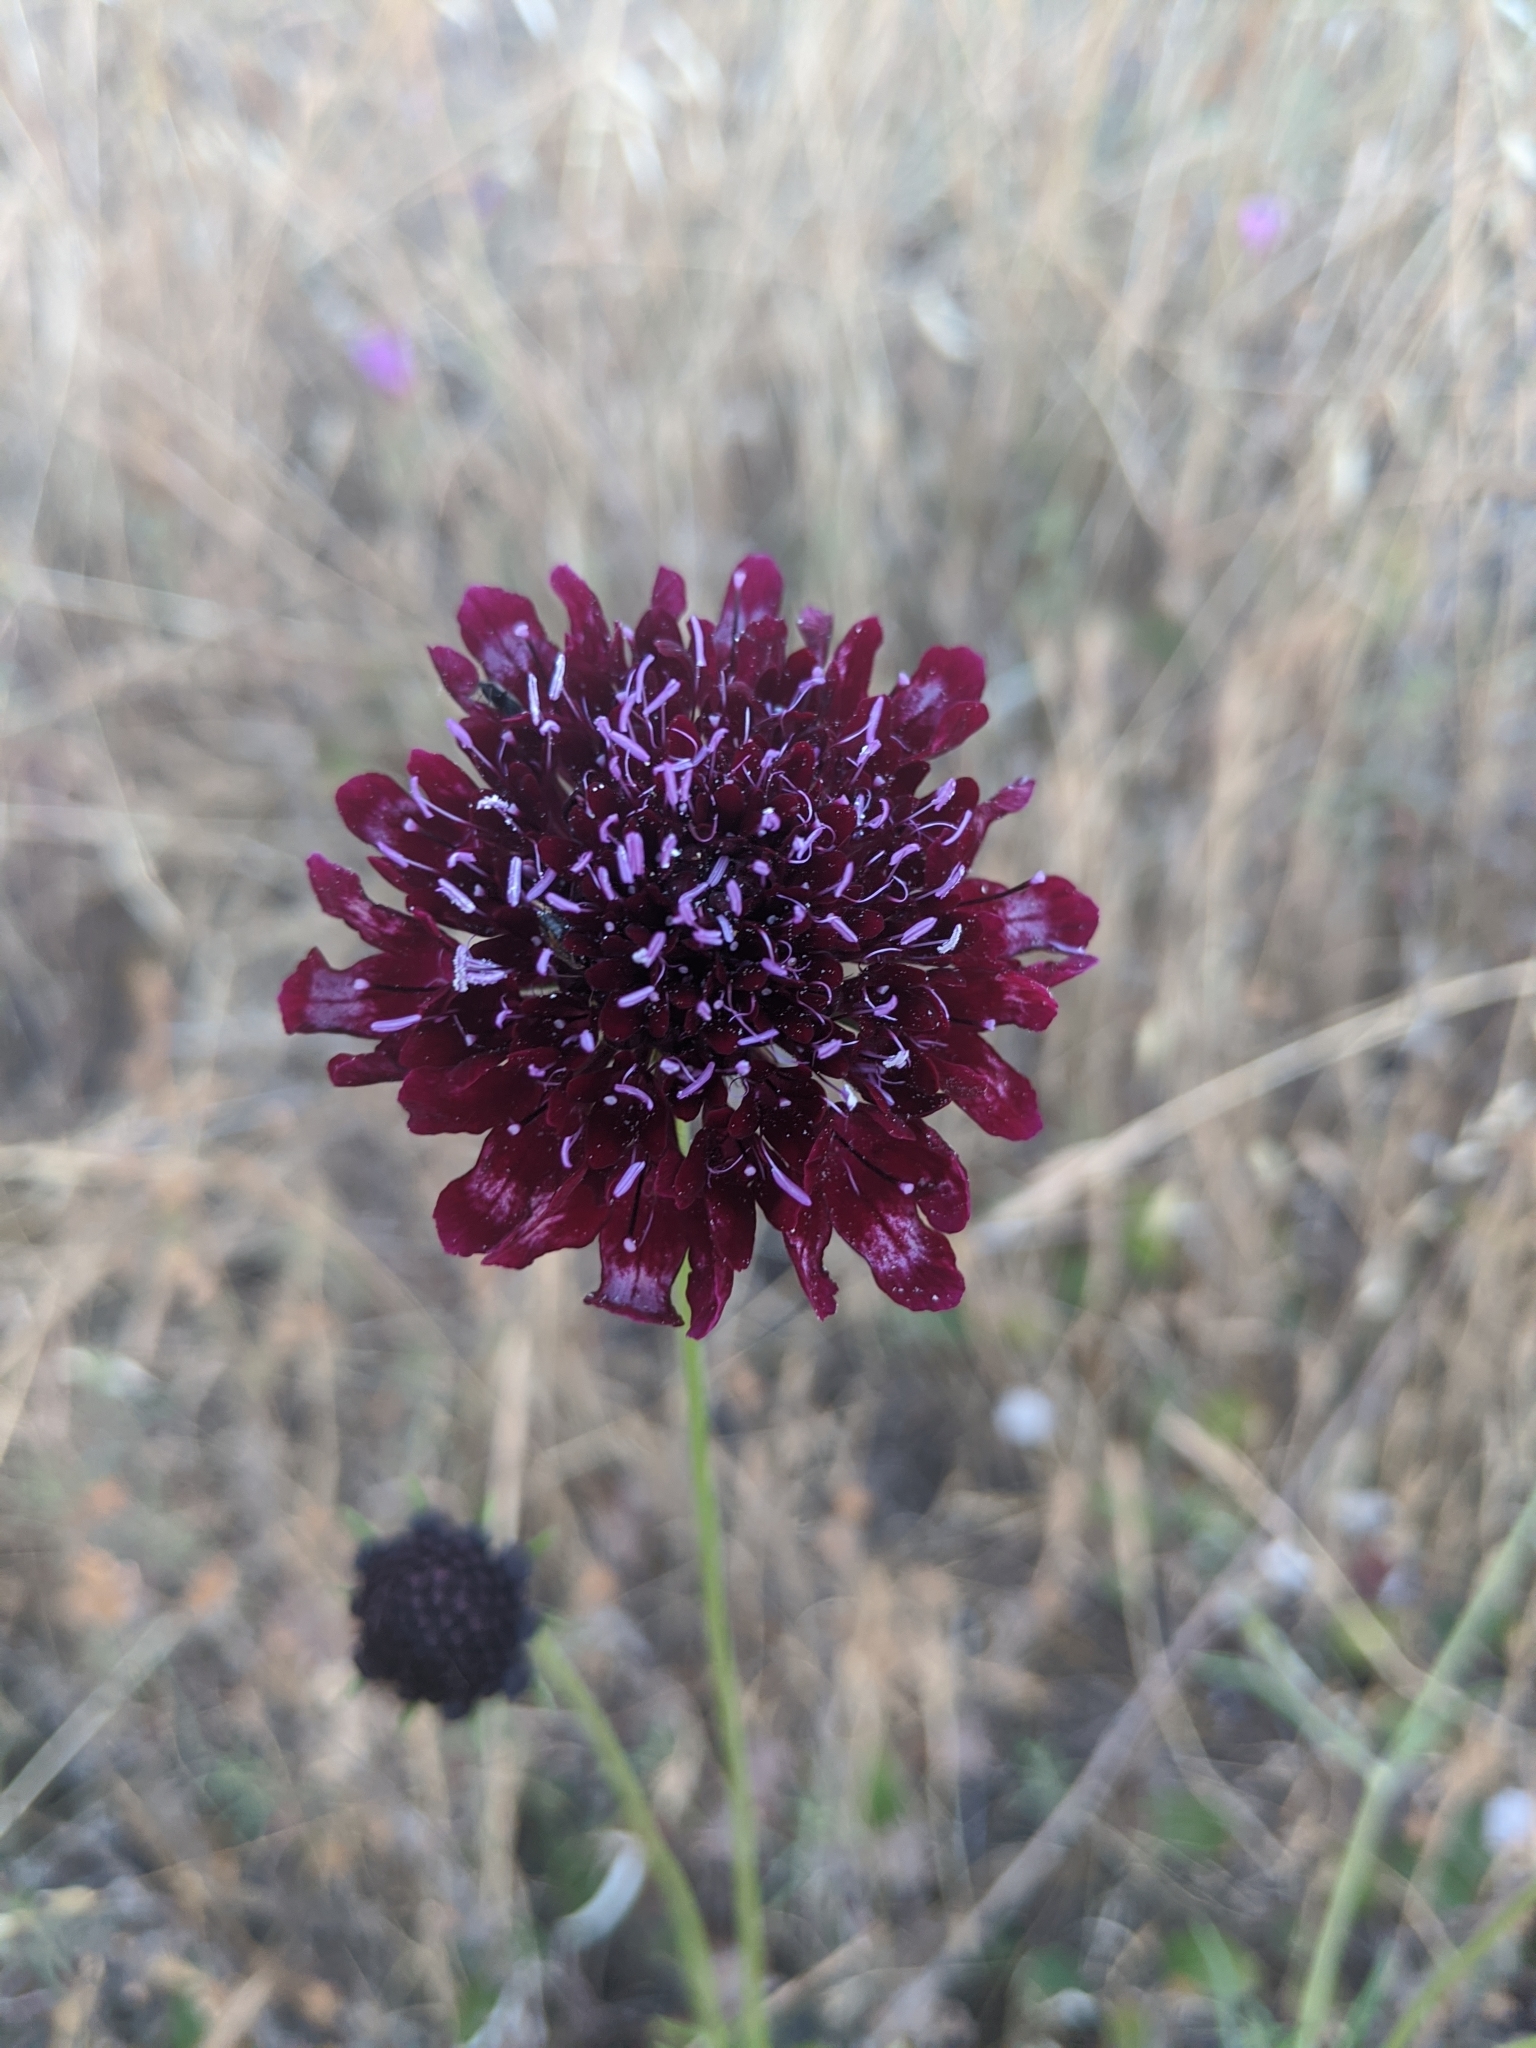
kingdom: Plantae
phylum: Tracheophyta
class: Magnoliopsida
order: Dipsacales
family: Caprifoliaceae
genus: Sixalix
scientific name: Sixalix atropurpurea
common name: Sweet scabious
